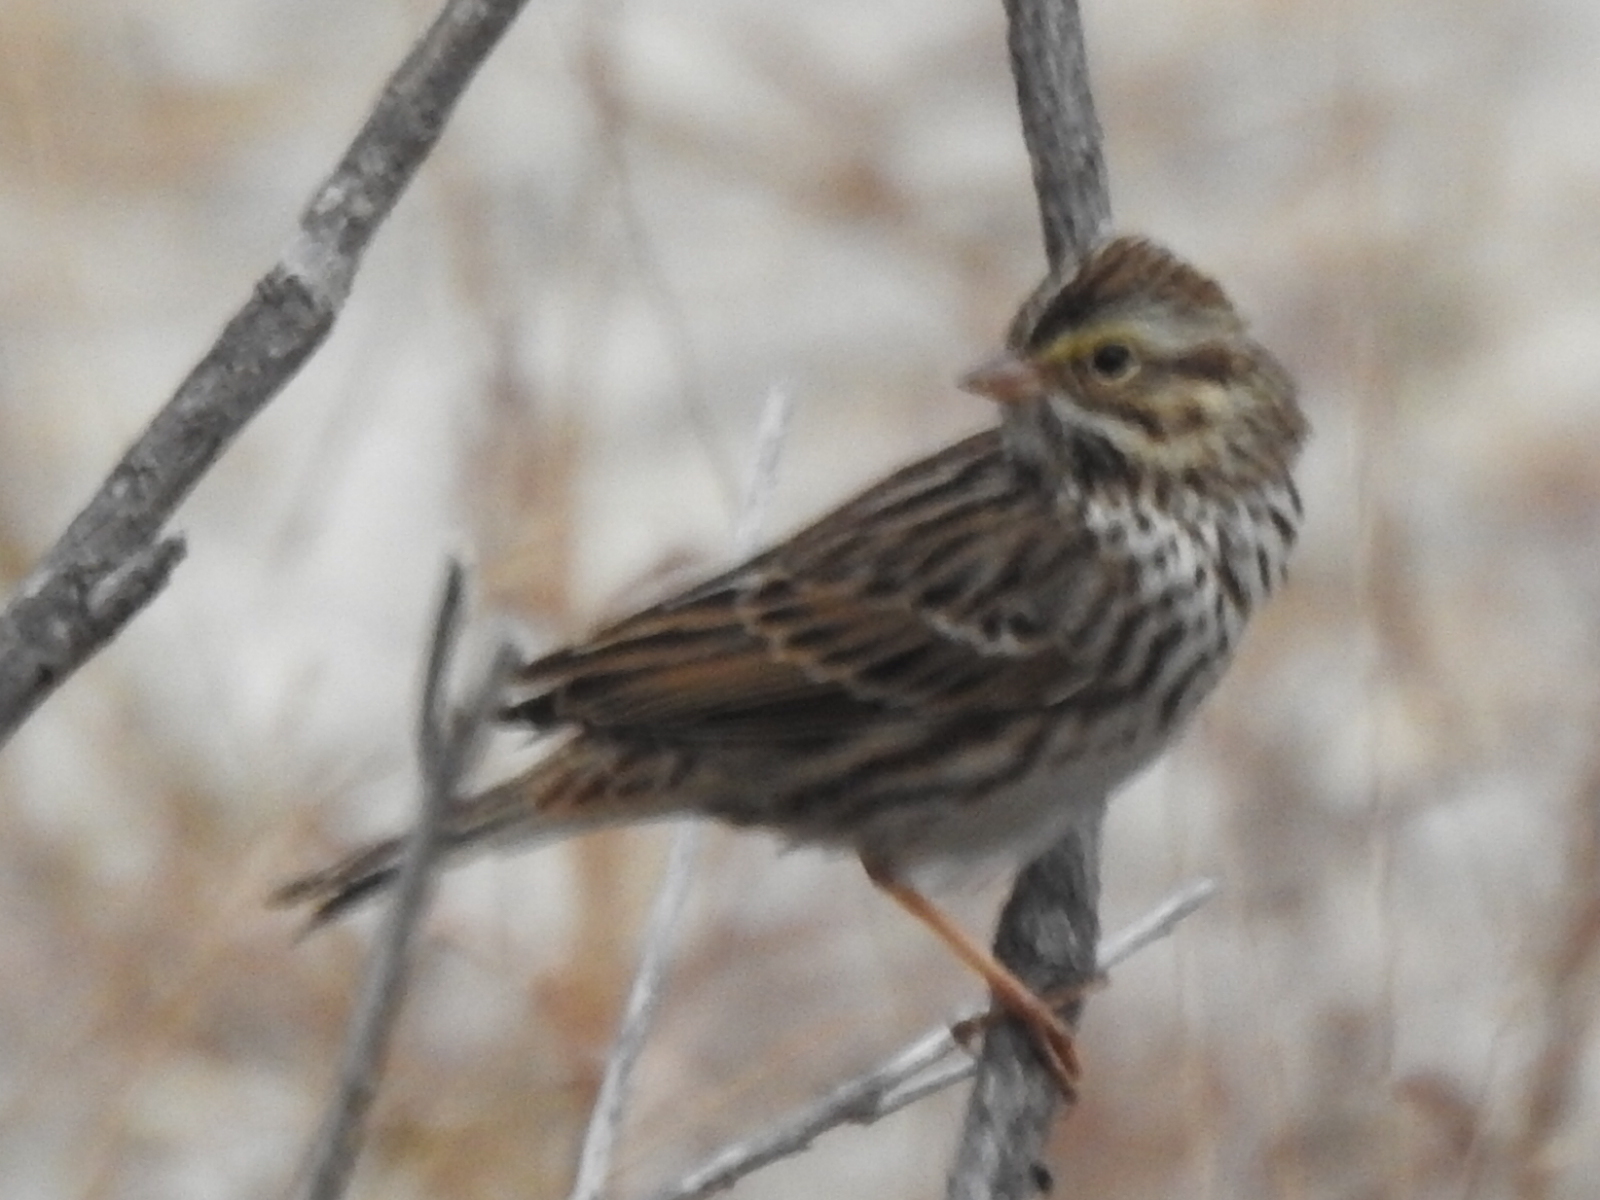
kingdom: Animalia
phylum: Chordata
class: Aves
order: Passeriformes
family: Passerellidae
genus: Passerculus
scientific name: Passerculus sandwichensis
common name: Savannah sparrow
